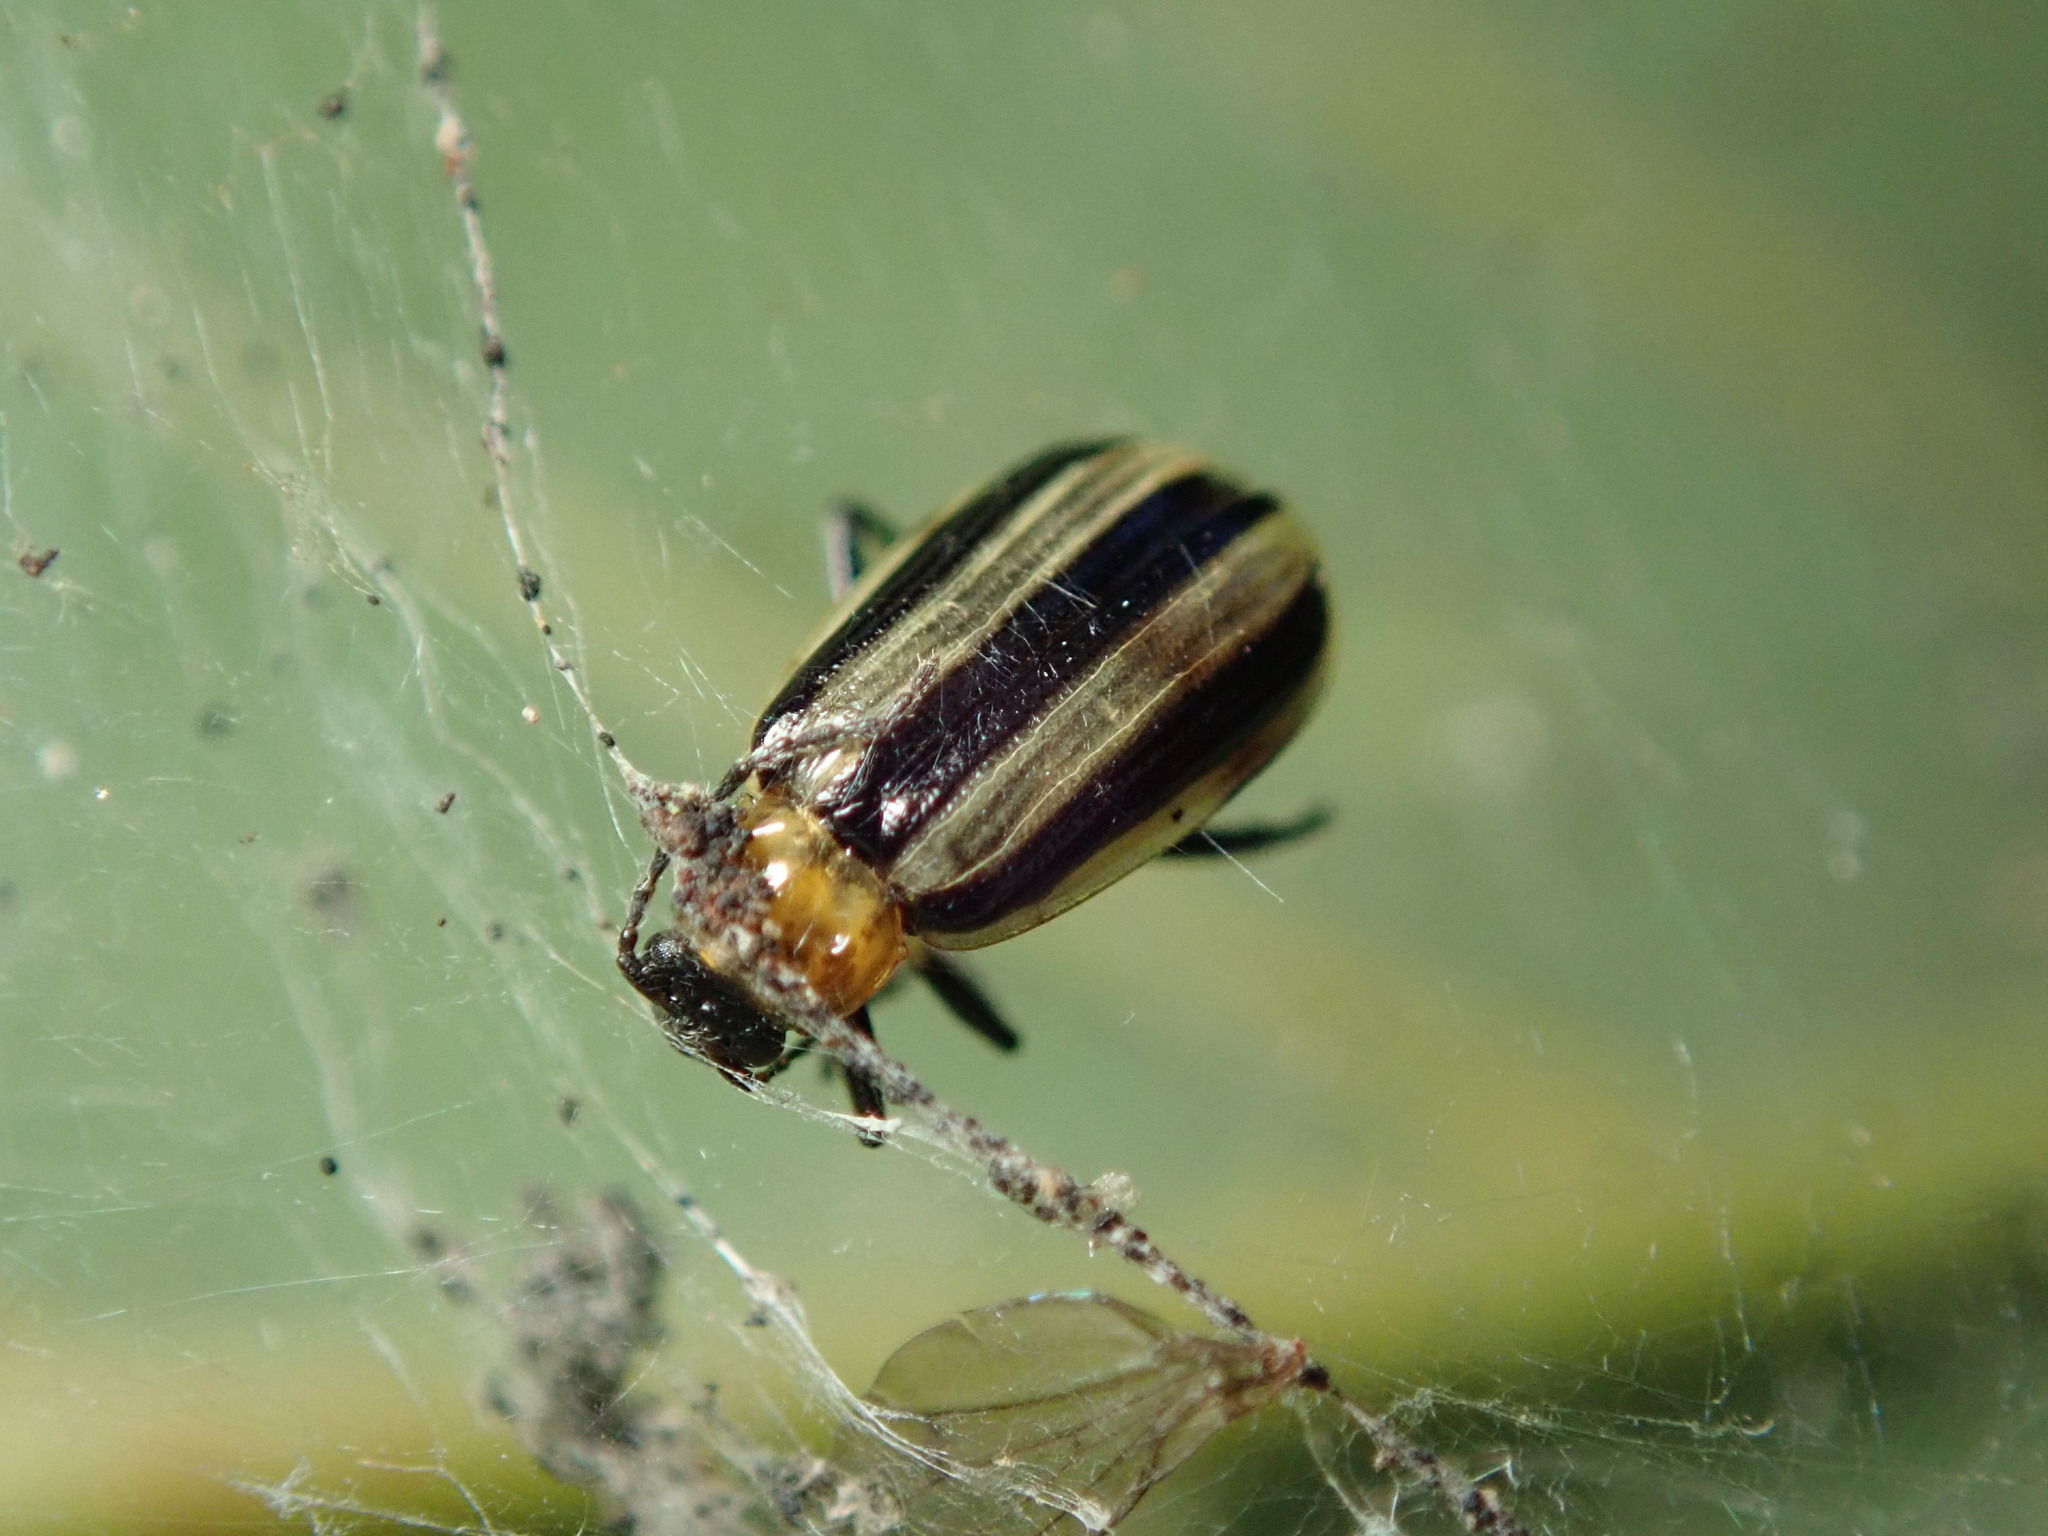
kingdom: Animalia
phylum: Arthropoda
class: Insecta
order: Coleoptera
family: Chrysomelidae
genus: Acalymma
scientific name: Acalymma trivittatum
